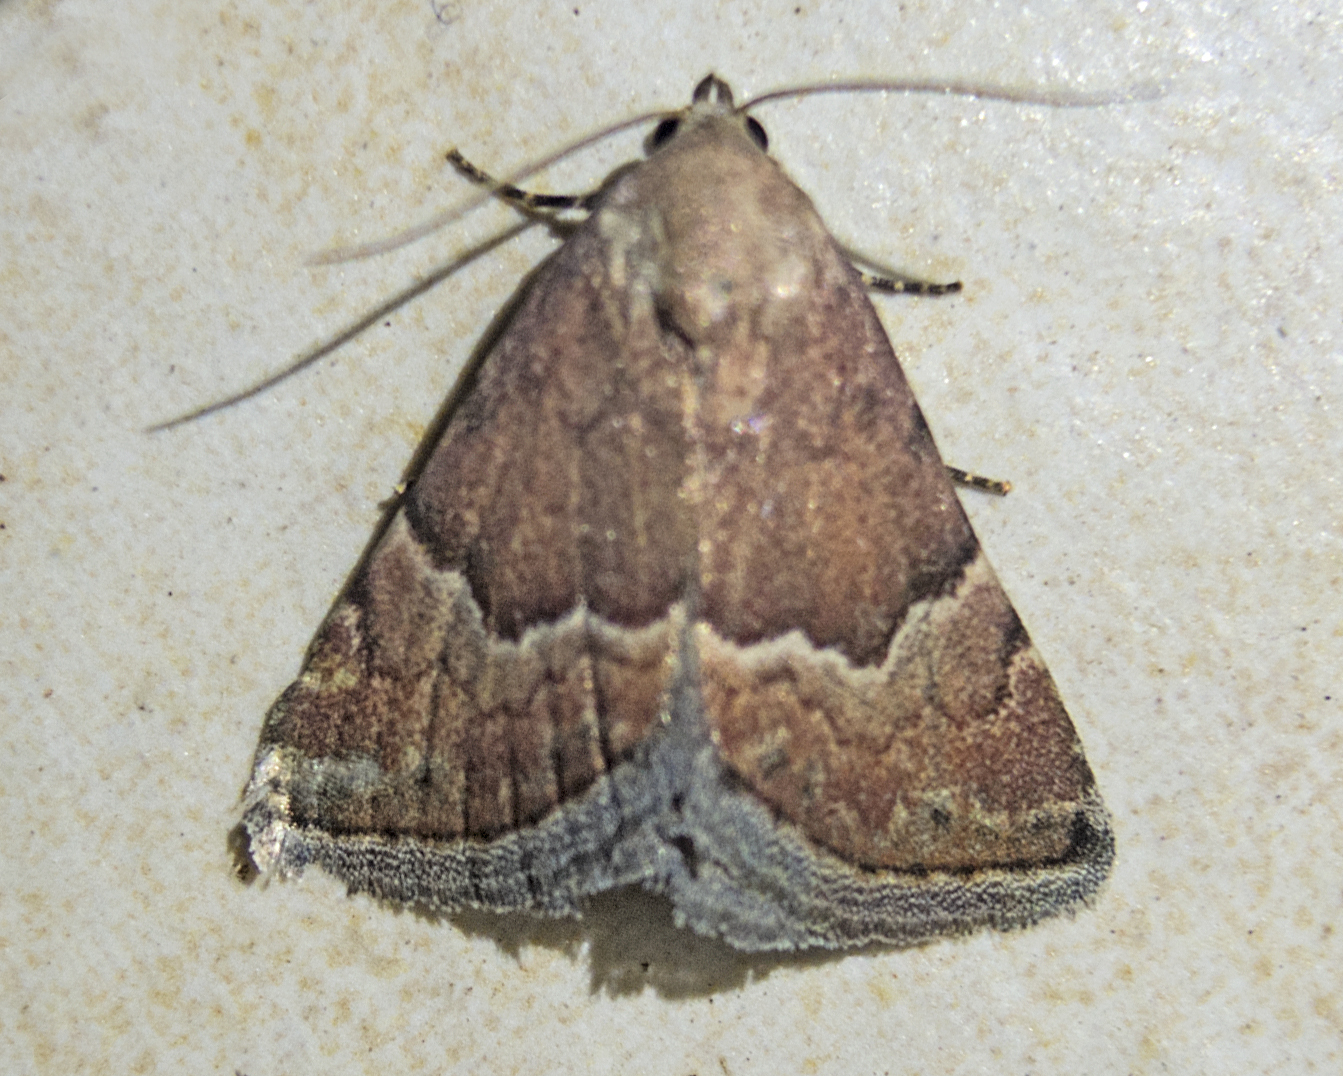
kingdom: Animalia
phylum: Arthropoda
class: Insecta
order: Lepidoptera
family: Noctuidae
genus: Odice
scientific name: Odice suava
